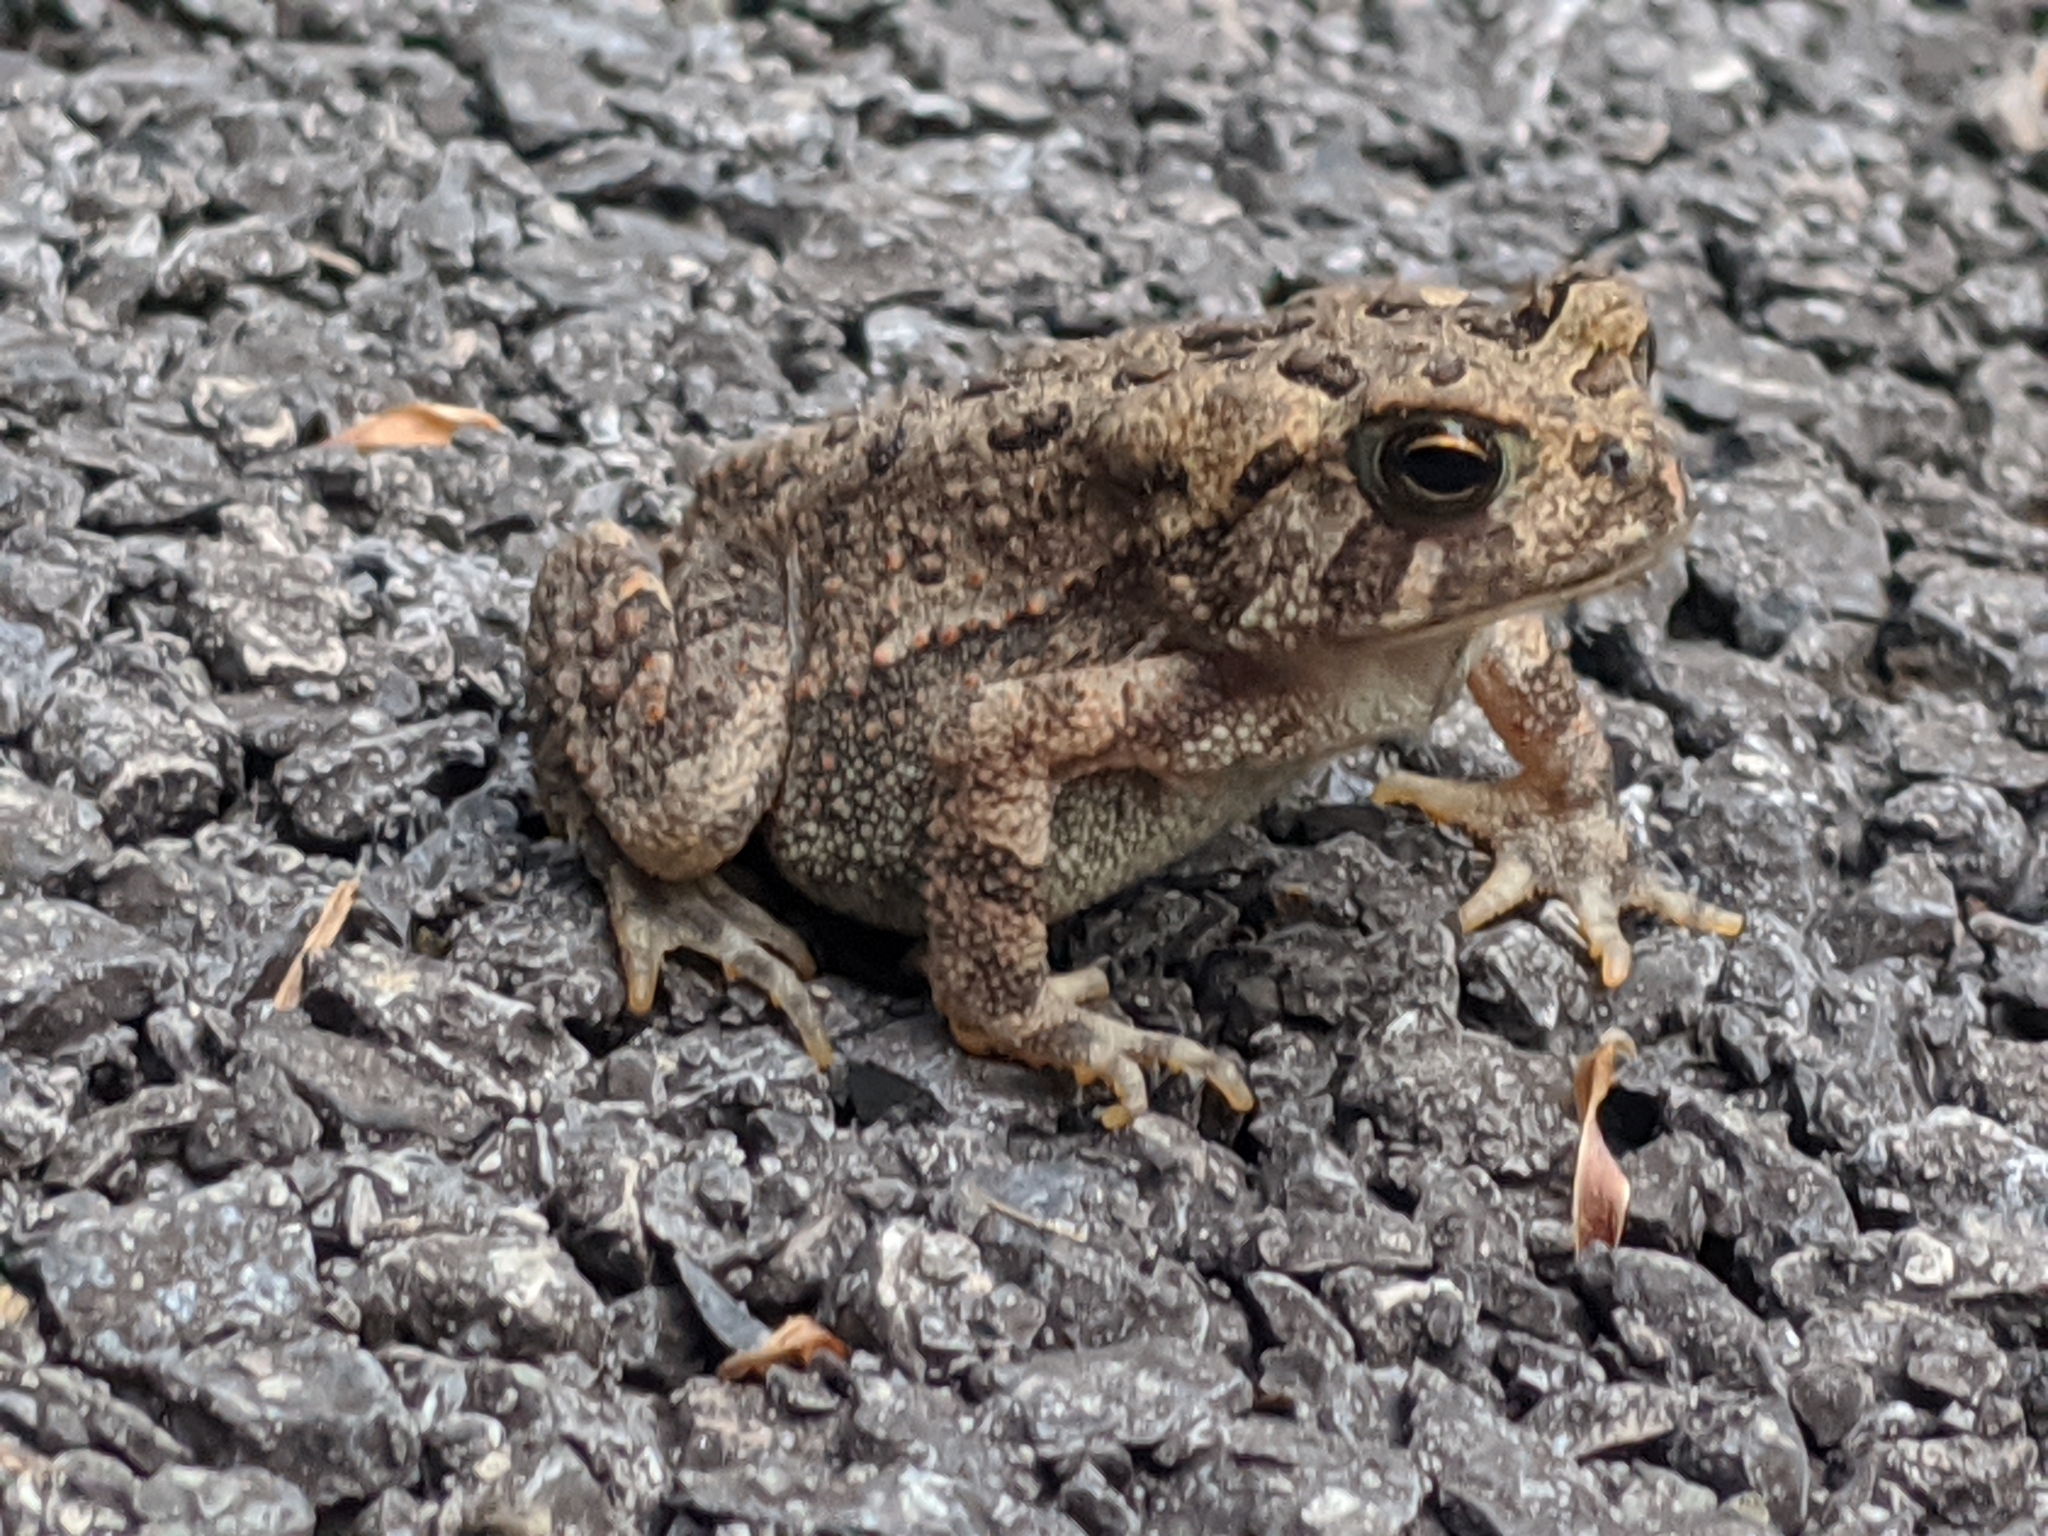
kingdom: Animalia
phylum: Chordata
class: Amphibia
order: Anura
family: Bufonidae
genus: Anaxyrus
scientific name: Anaxyrus americanus
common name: American toad
